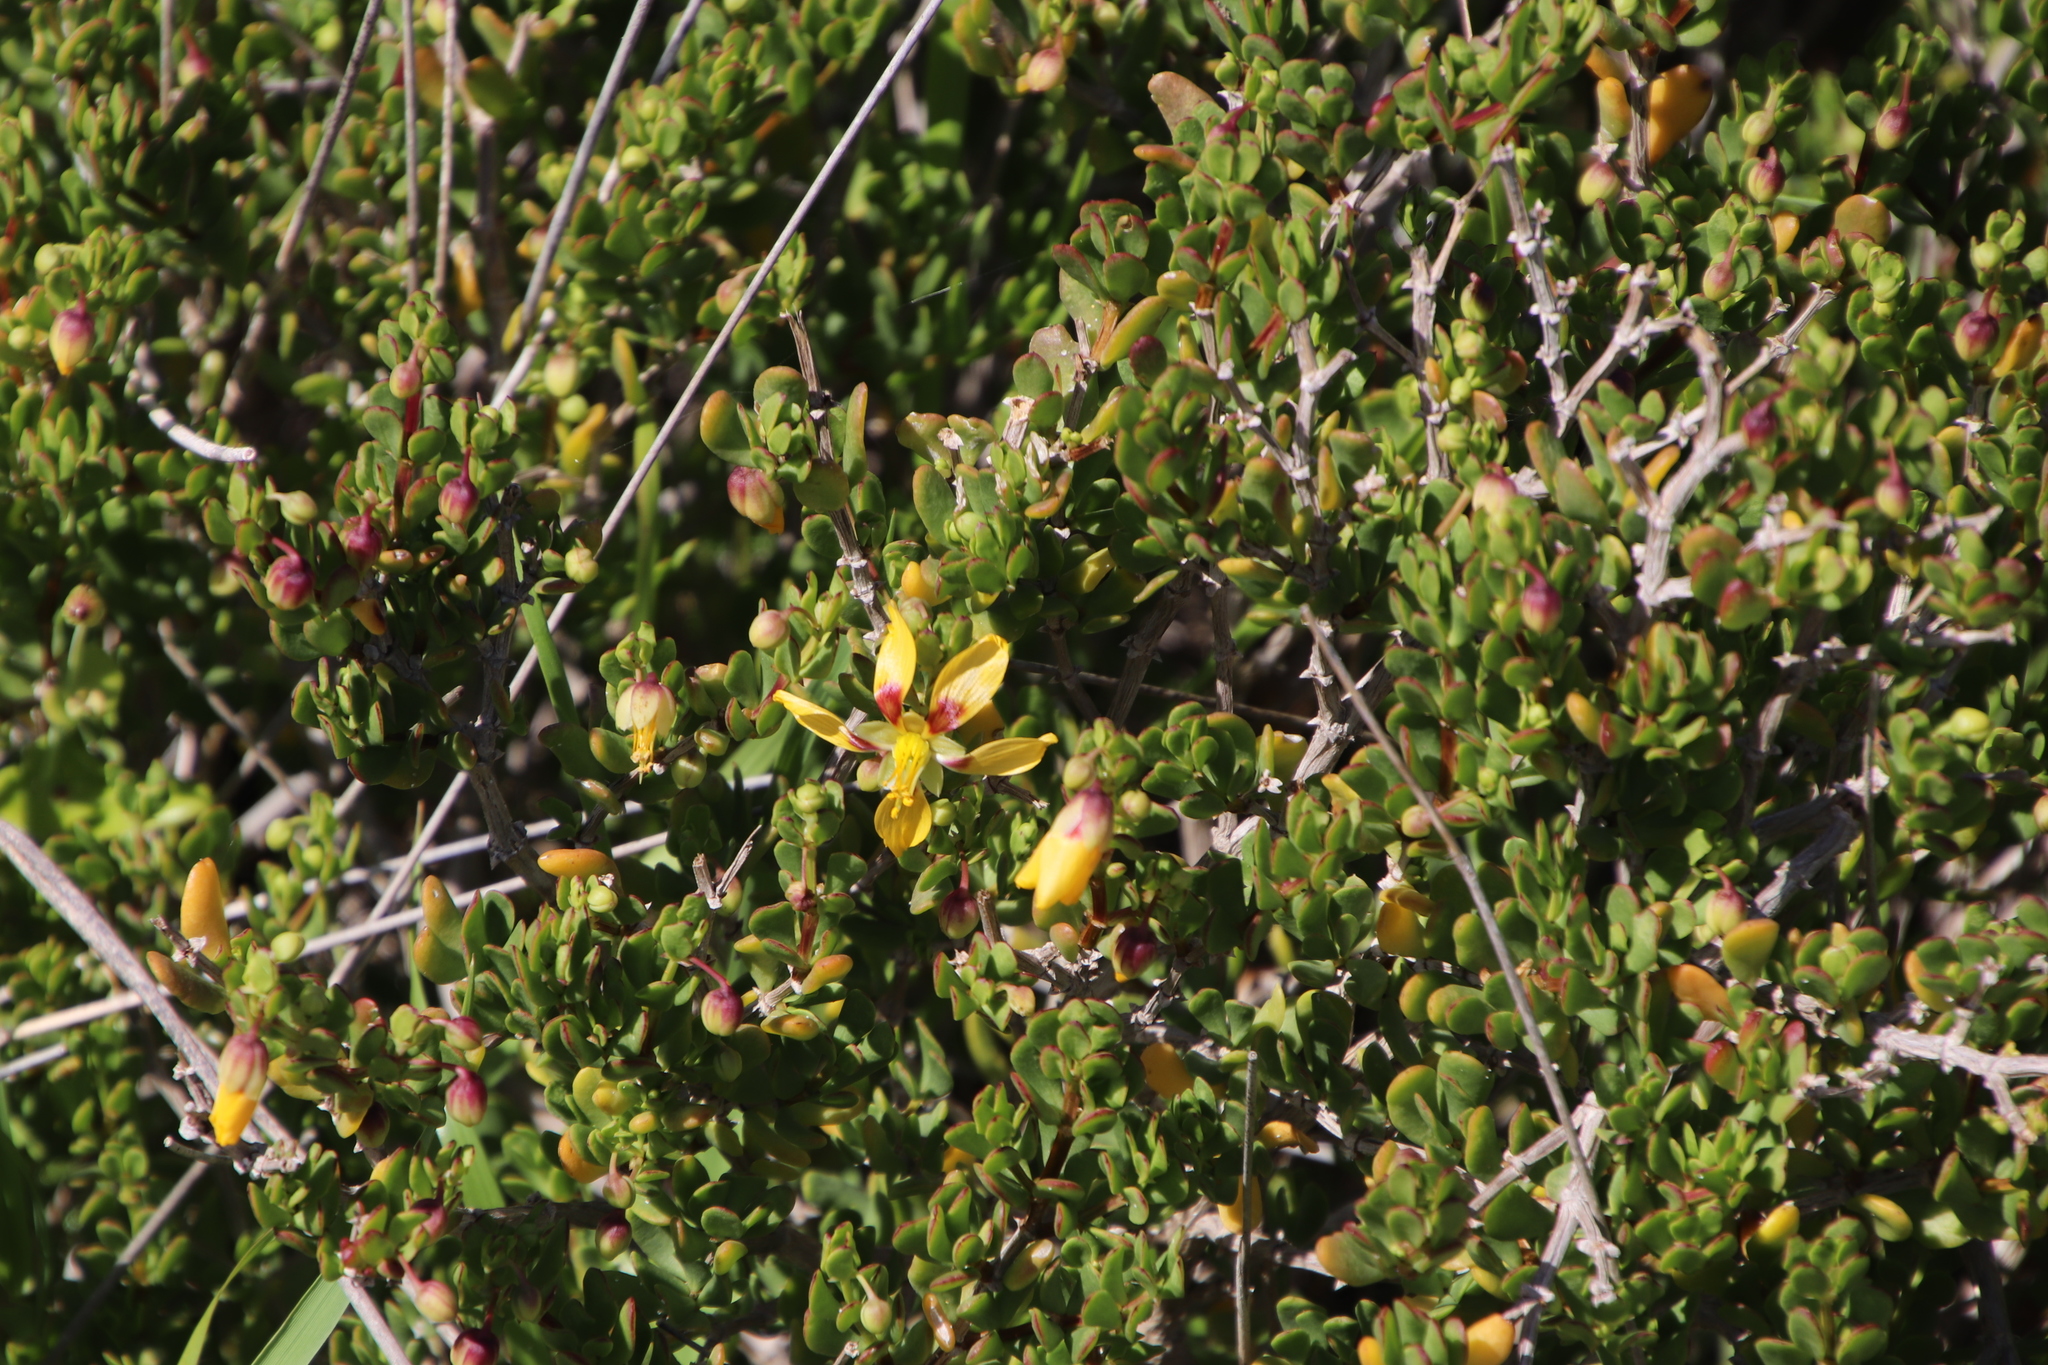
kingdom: Plantae
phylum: Tracheophyta
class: Magnoliopsida
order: Zygophyllales
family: Zygophyllaceae
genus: Roepera
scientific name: Roepera flexuosa
